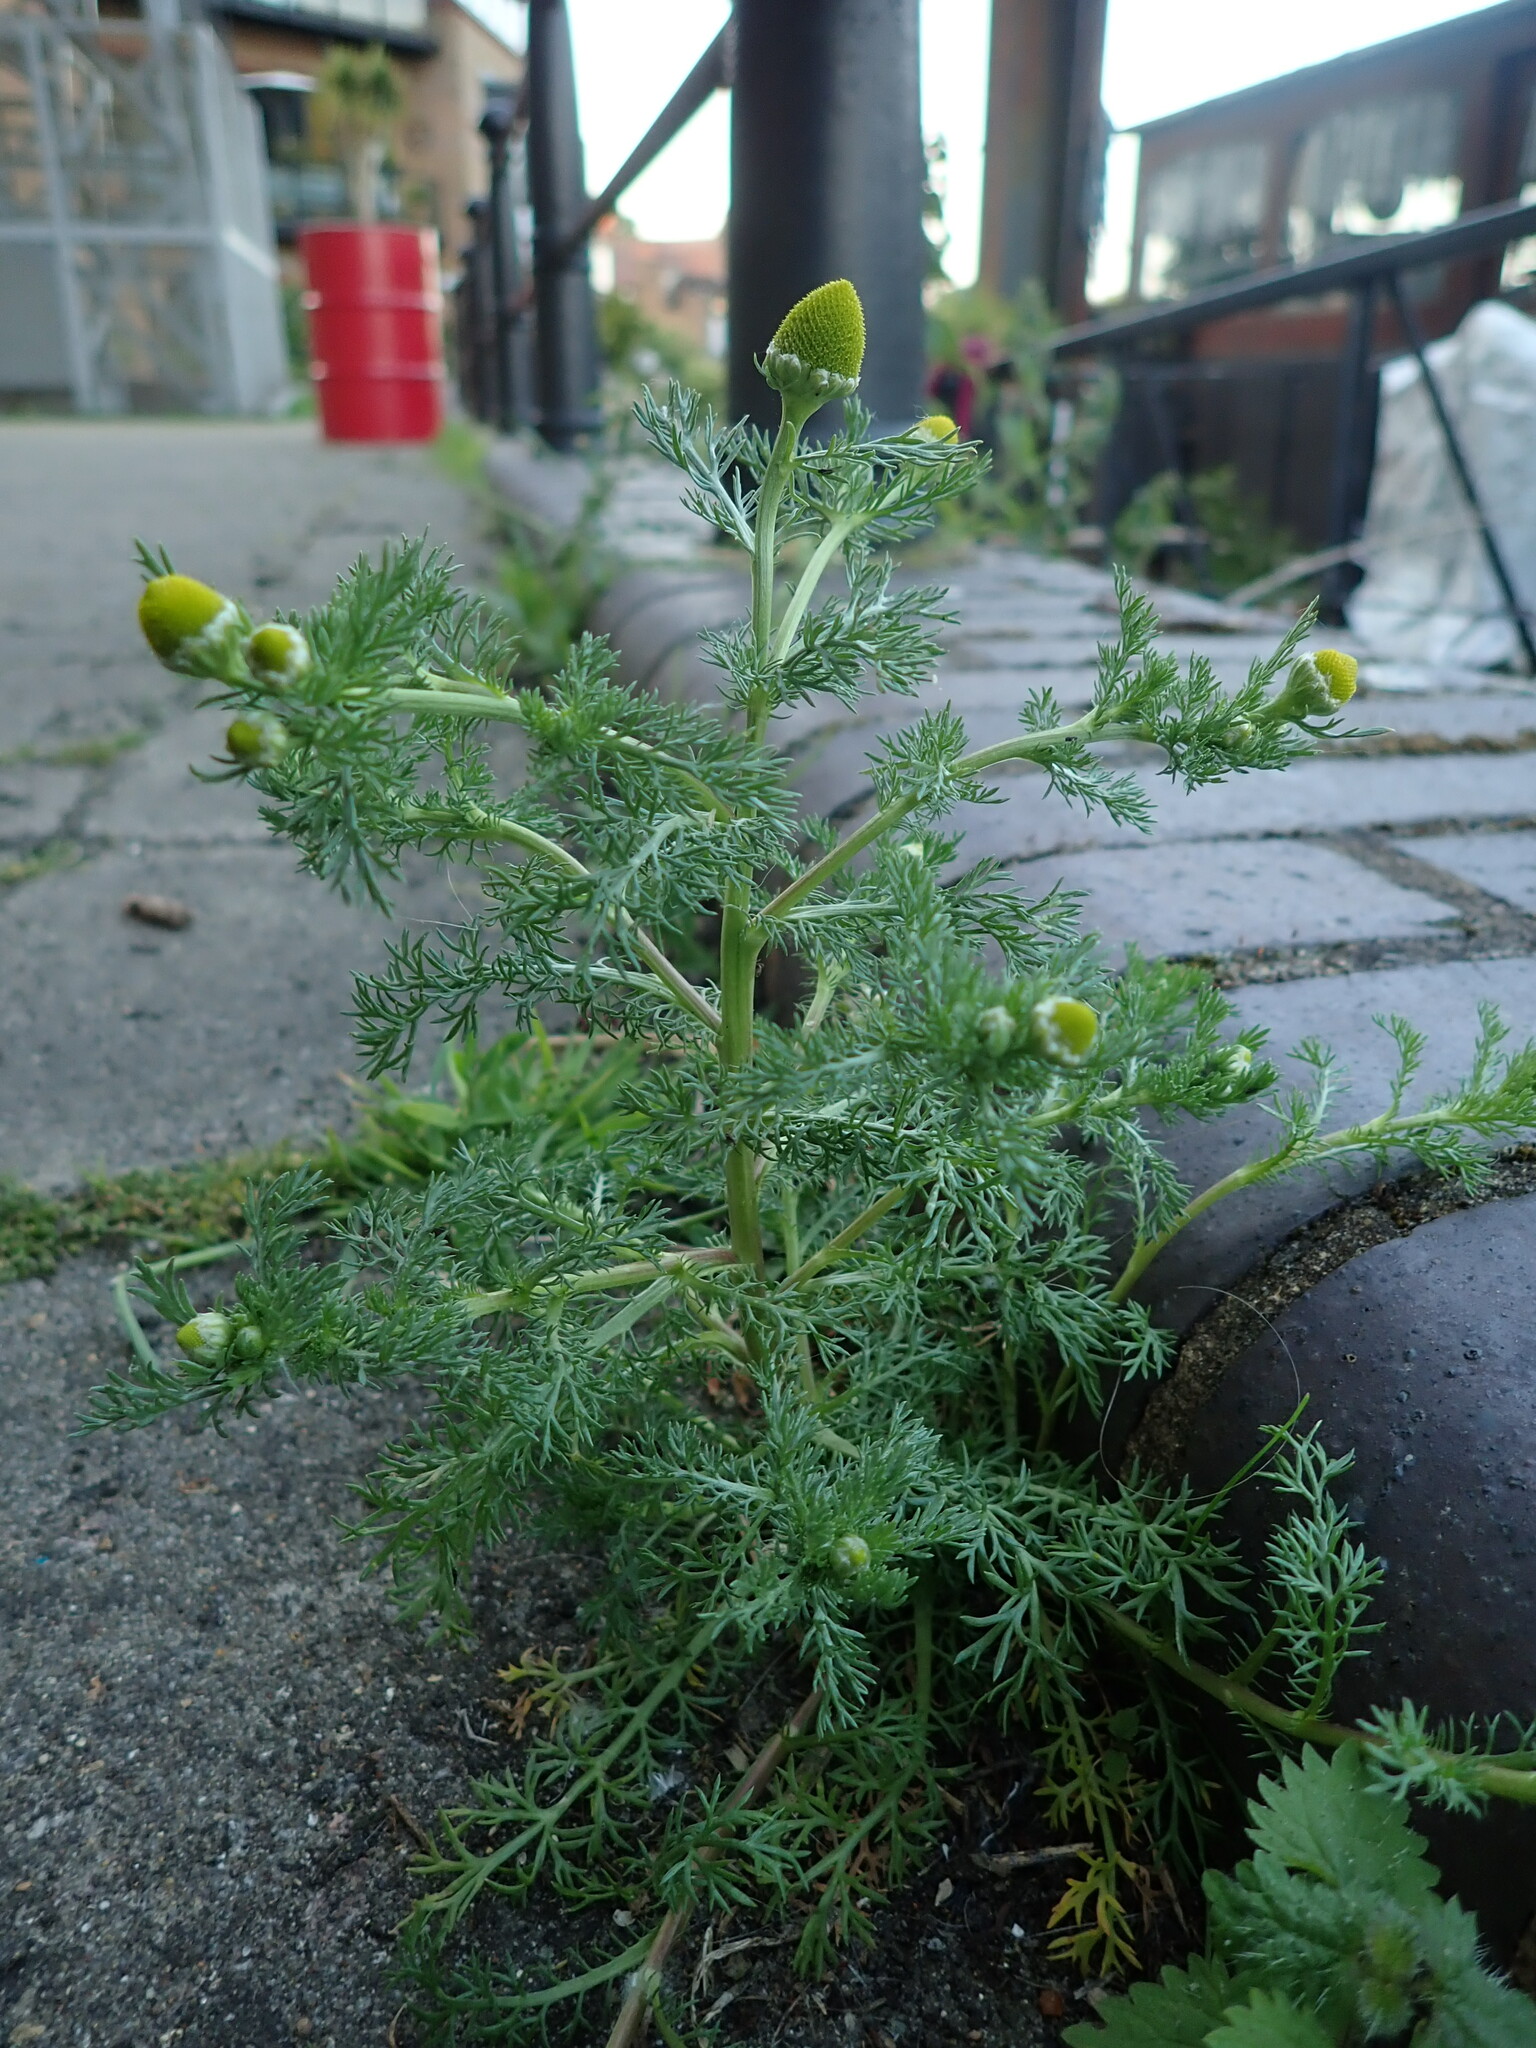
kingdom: Plantae
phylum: Tracheophyta
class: Magnoliopsida
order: Asterales
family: Asteraceae
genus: Matricaria
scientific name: Matricaria discoidea
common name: Disc mayweed
